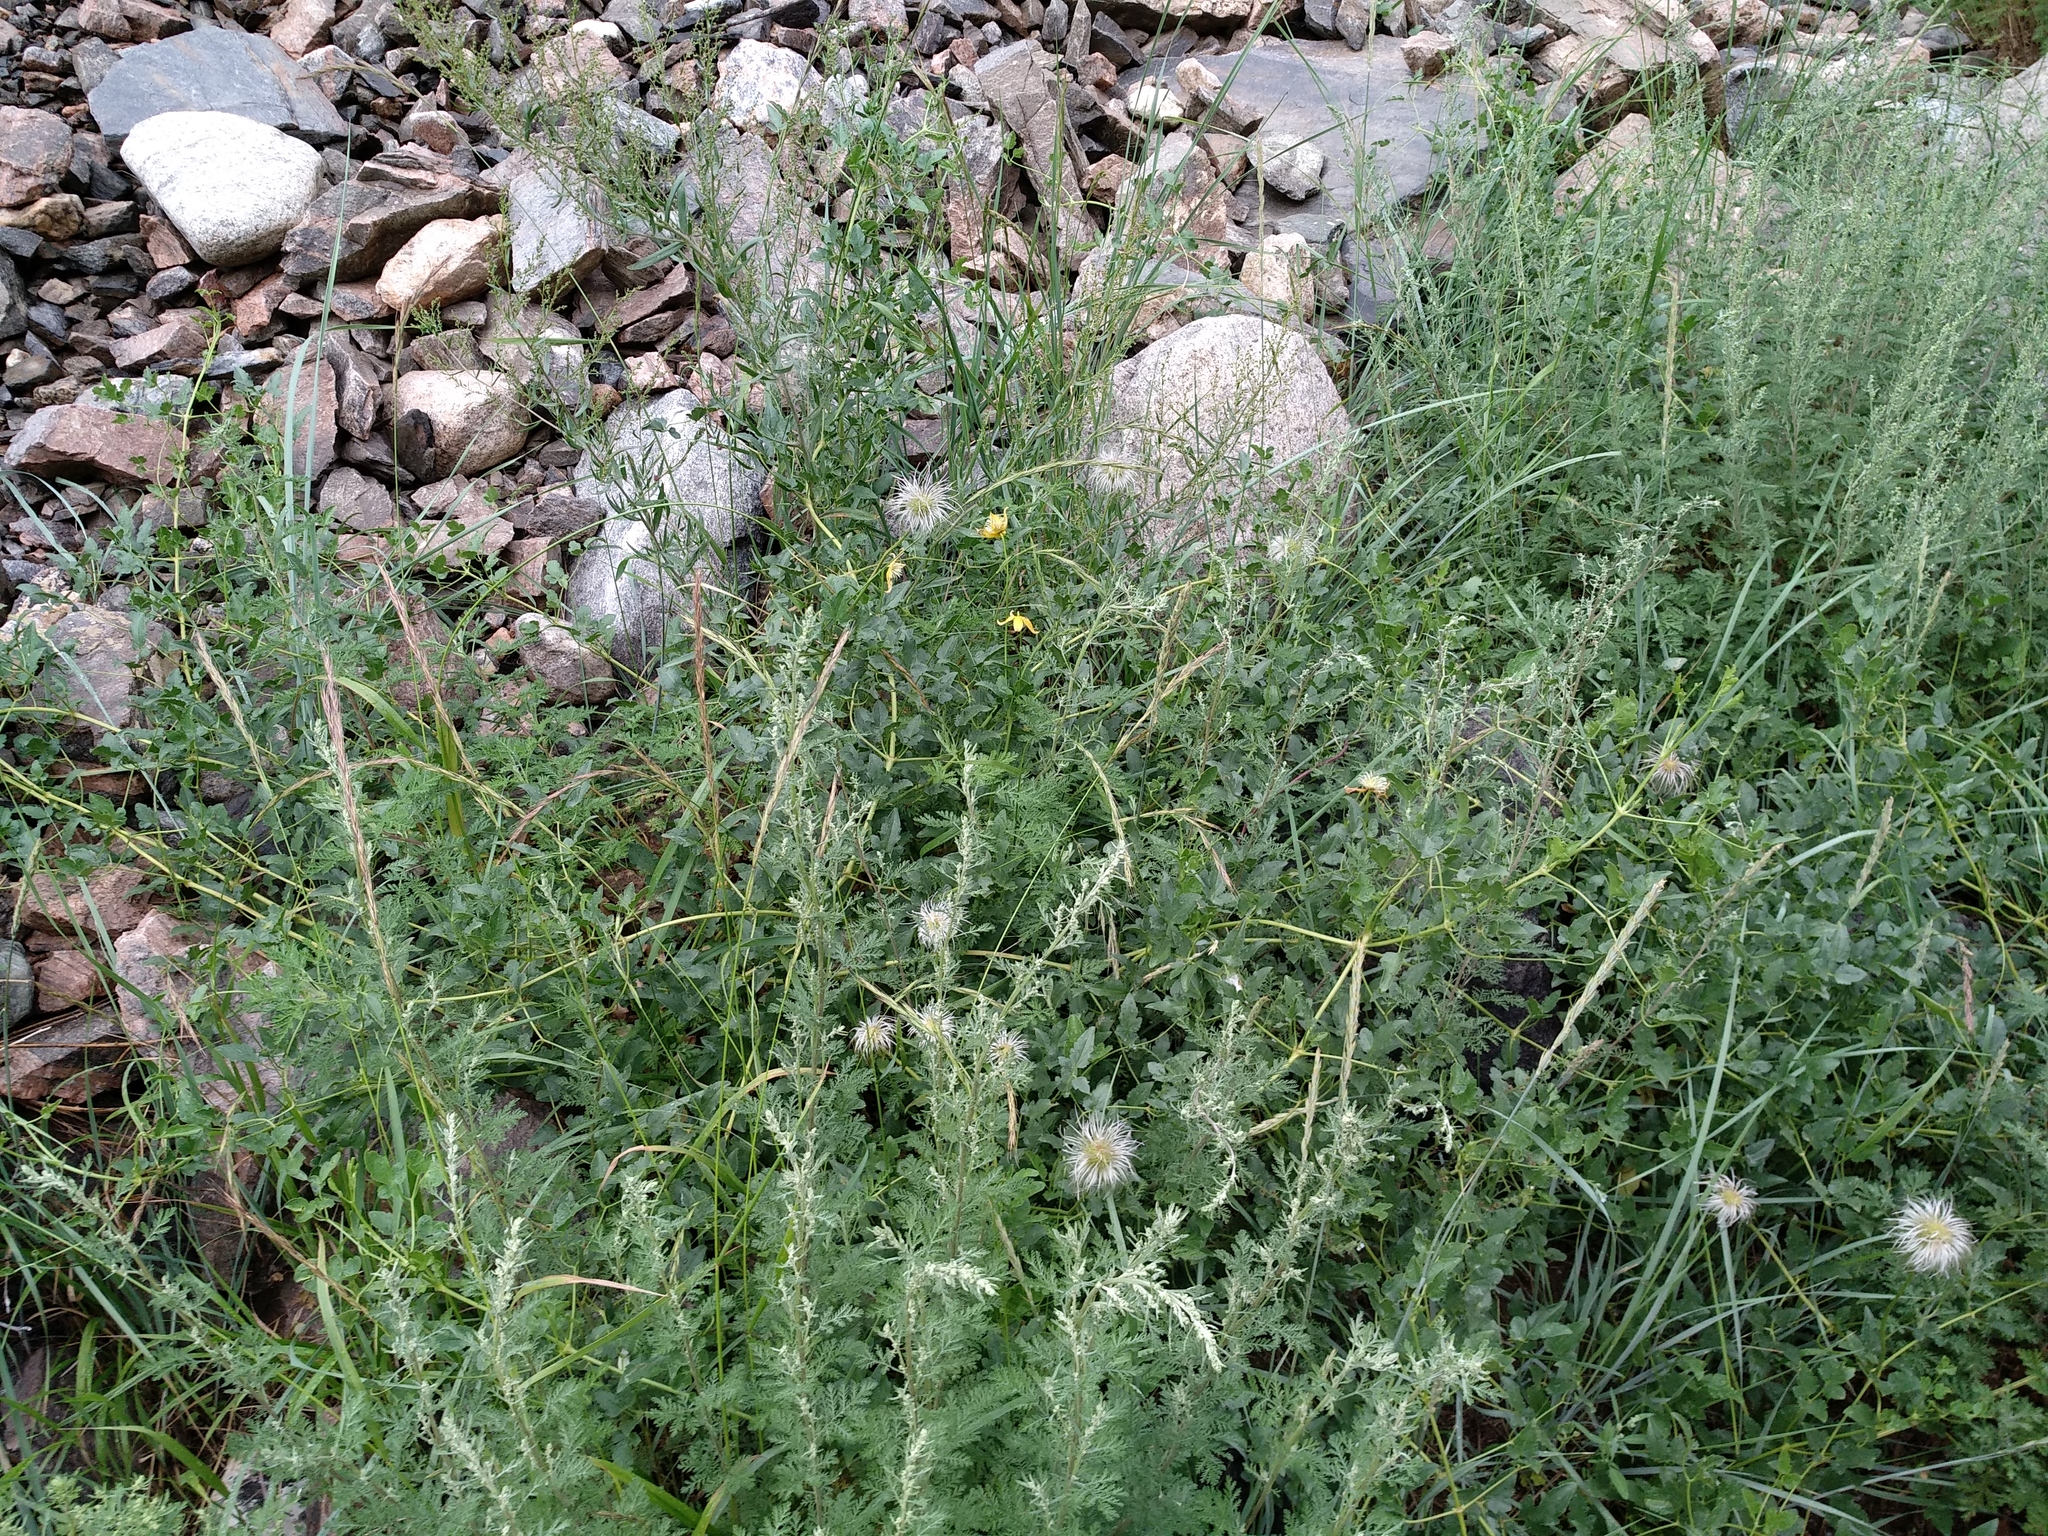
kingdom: Plantae
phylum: Tracheophyta
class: Magnoliopsida
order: Ranunculales
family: Ranunculaceae
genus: Clematis
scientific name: Clematis tangutica
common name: Orange-peel clematis
